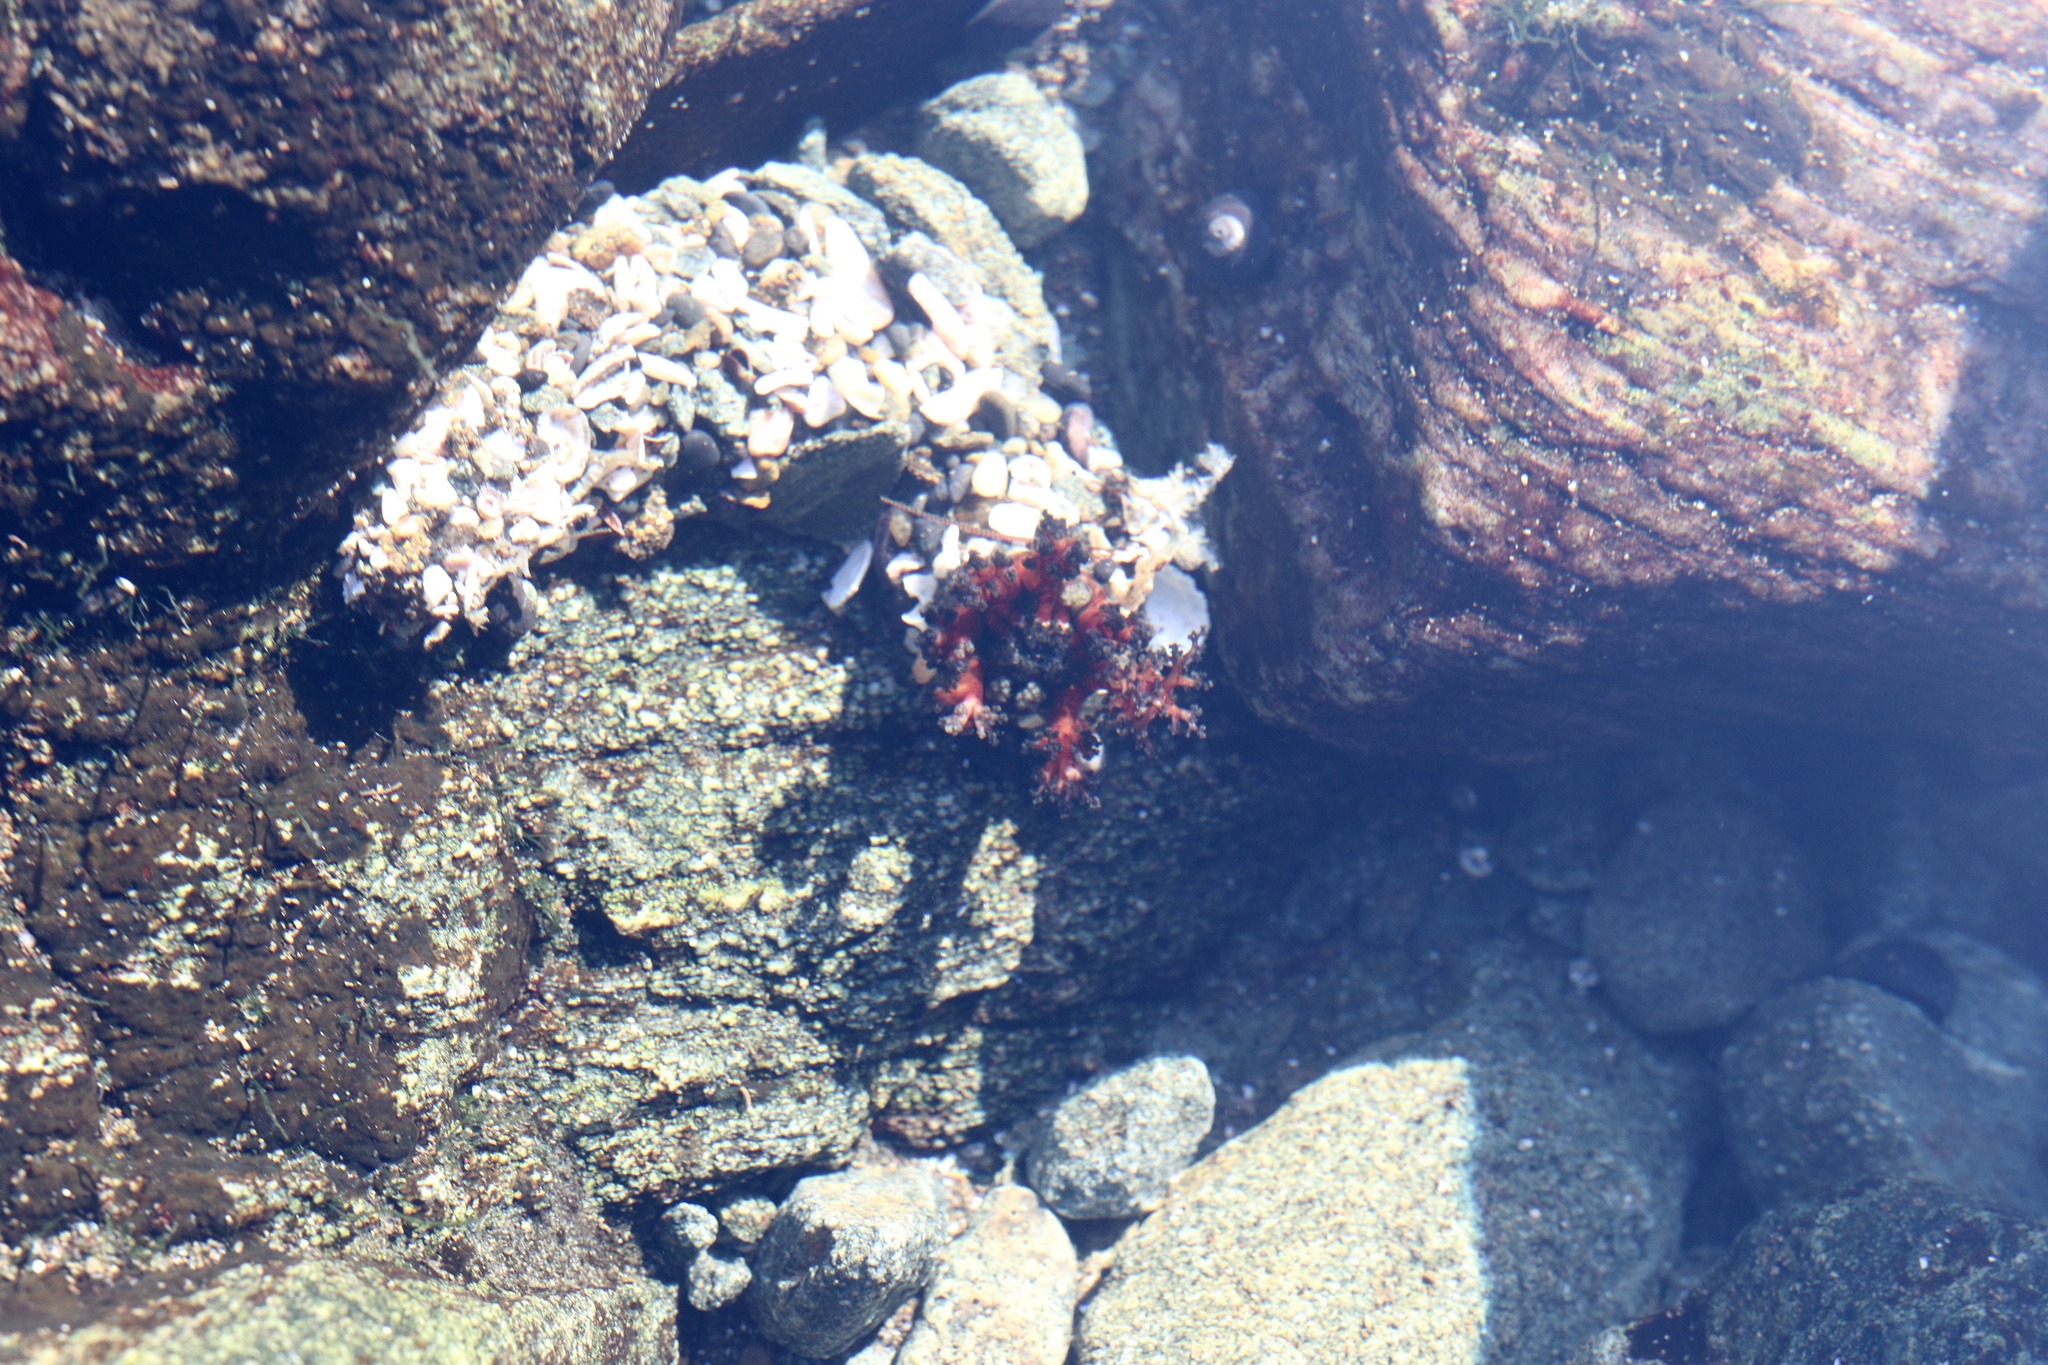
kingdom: Animalia
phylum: Echinodermata
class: Holothuroidea
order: Dendrochirotida
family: Cucumariidae
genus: Athyonidium
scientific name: Athyonidium chilensis
